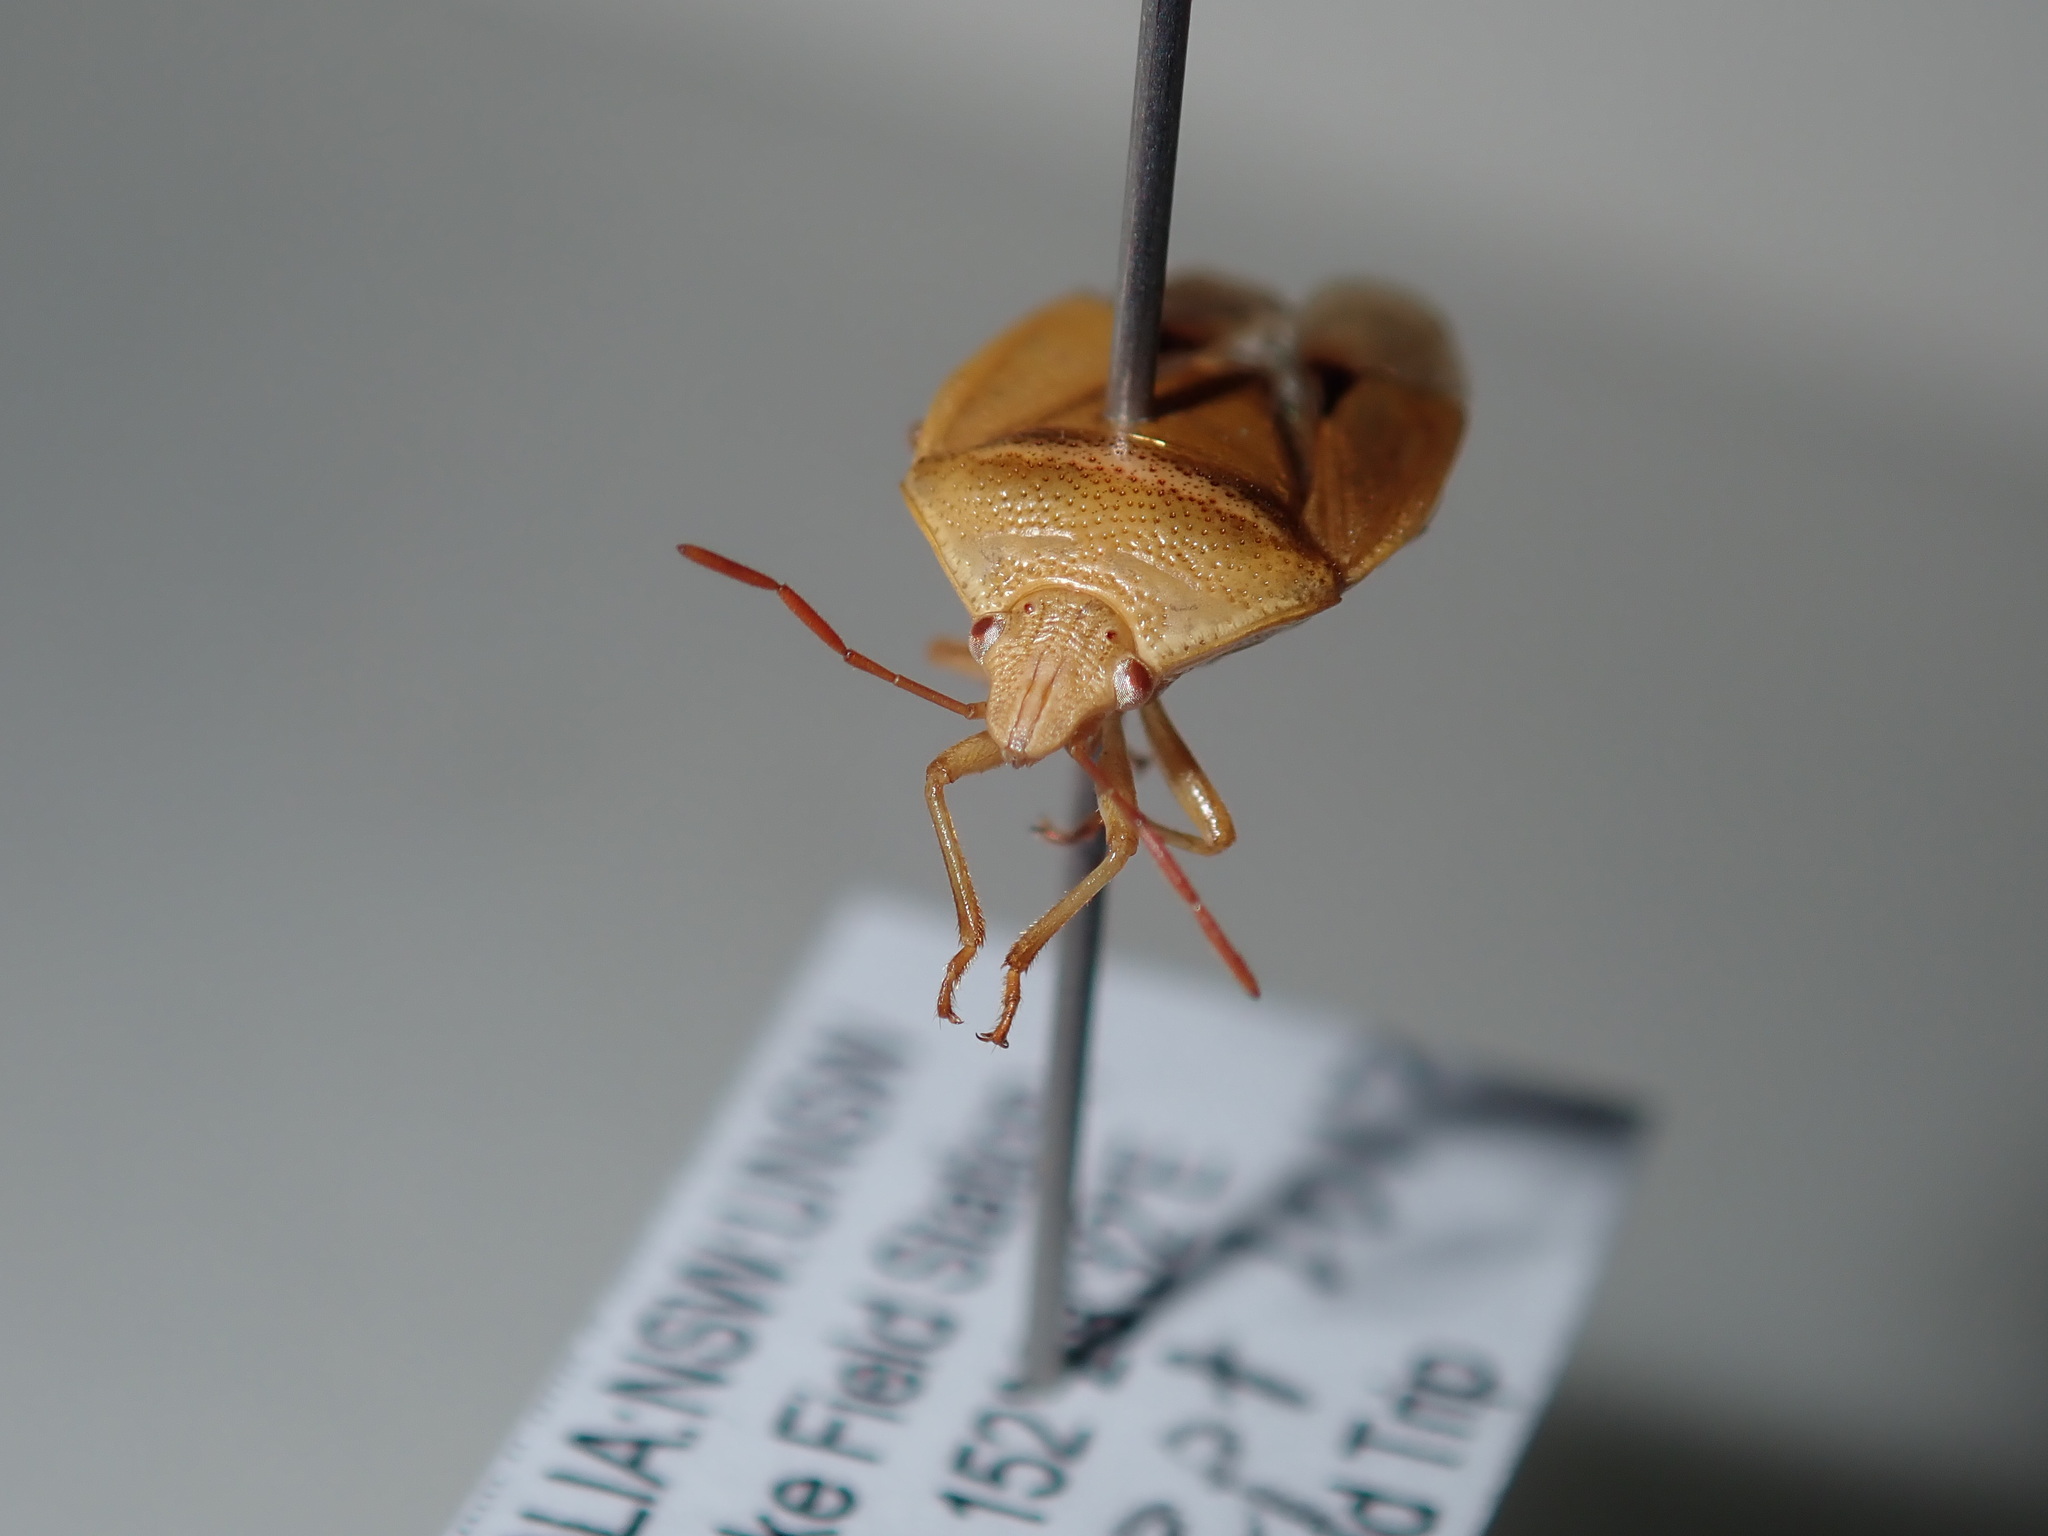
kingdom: Animalia
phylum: Arthropoda
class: Insecta
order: Hemiptera
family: Pentatomidae
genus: Ocirrhoe
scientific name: Ocirrhoe
